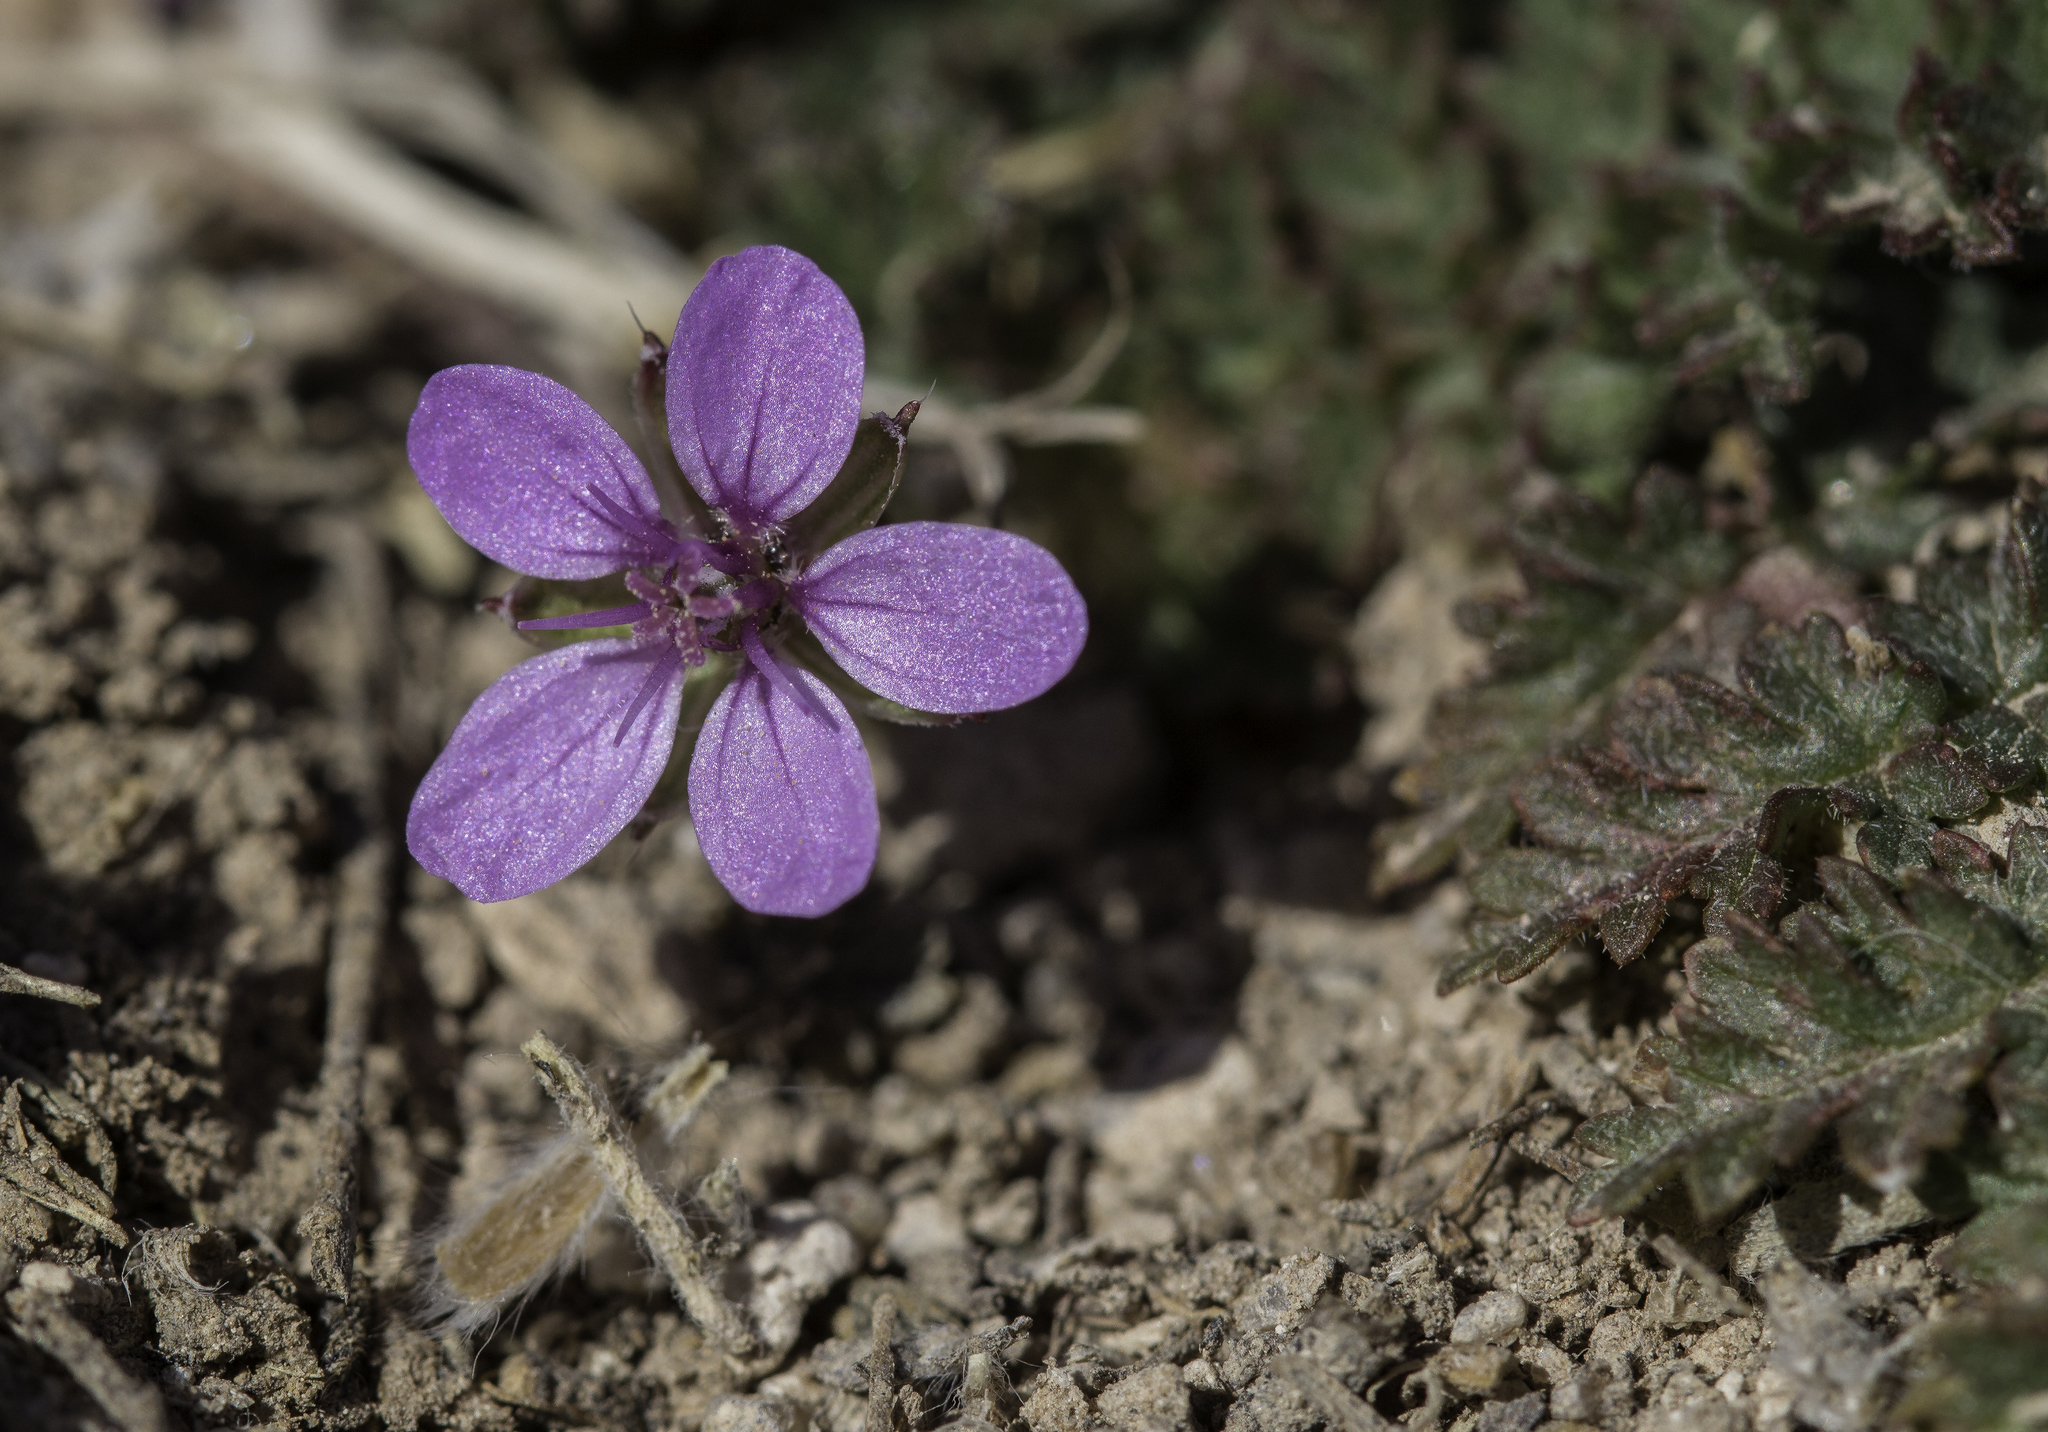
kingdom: Plantae
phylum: Tracheophyta
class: Magnoliopsida
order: Geraniales
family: Geraniaceae
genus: Erodium
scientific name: Erodium cicutarium
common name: Common stork's-bill
